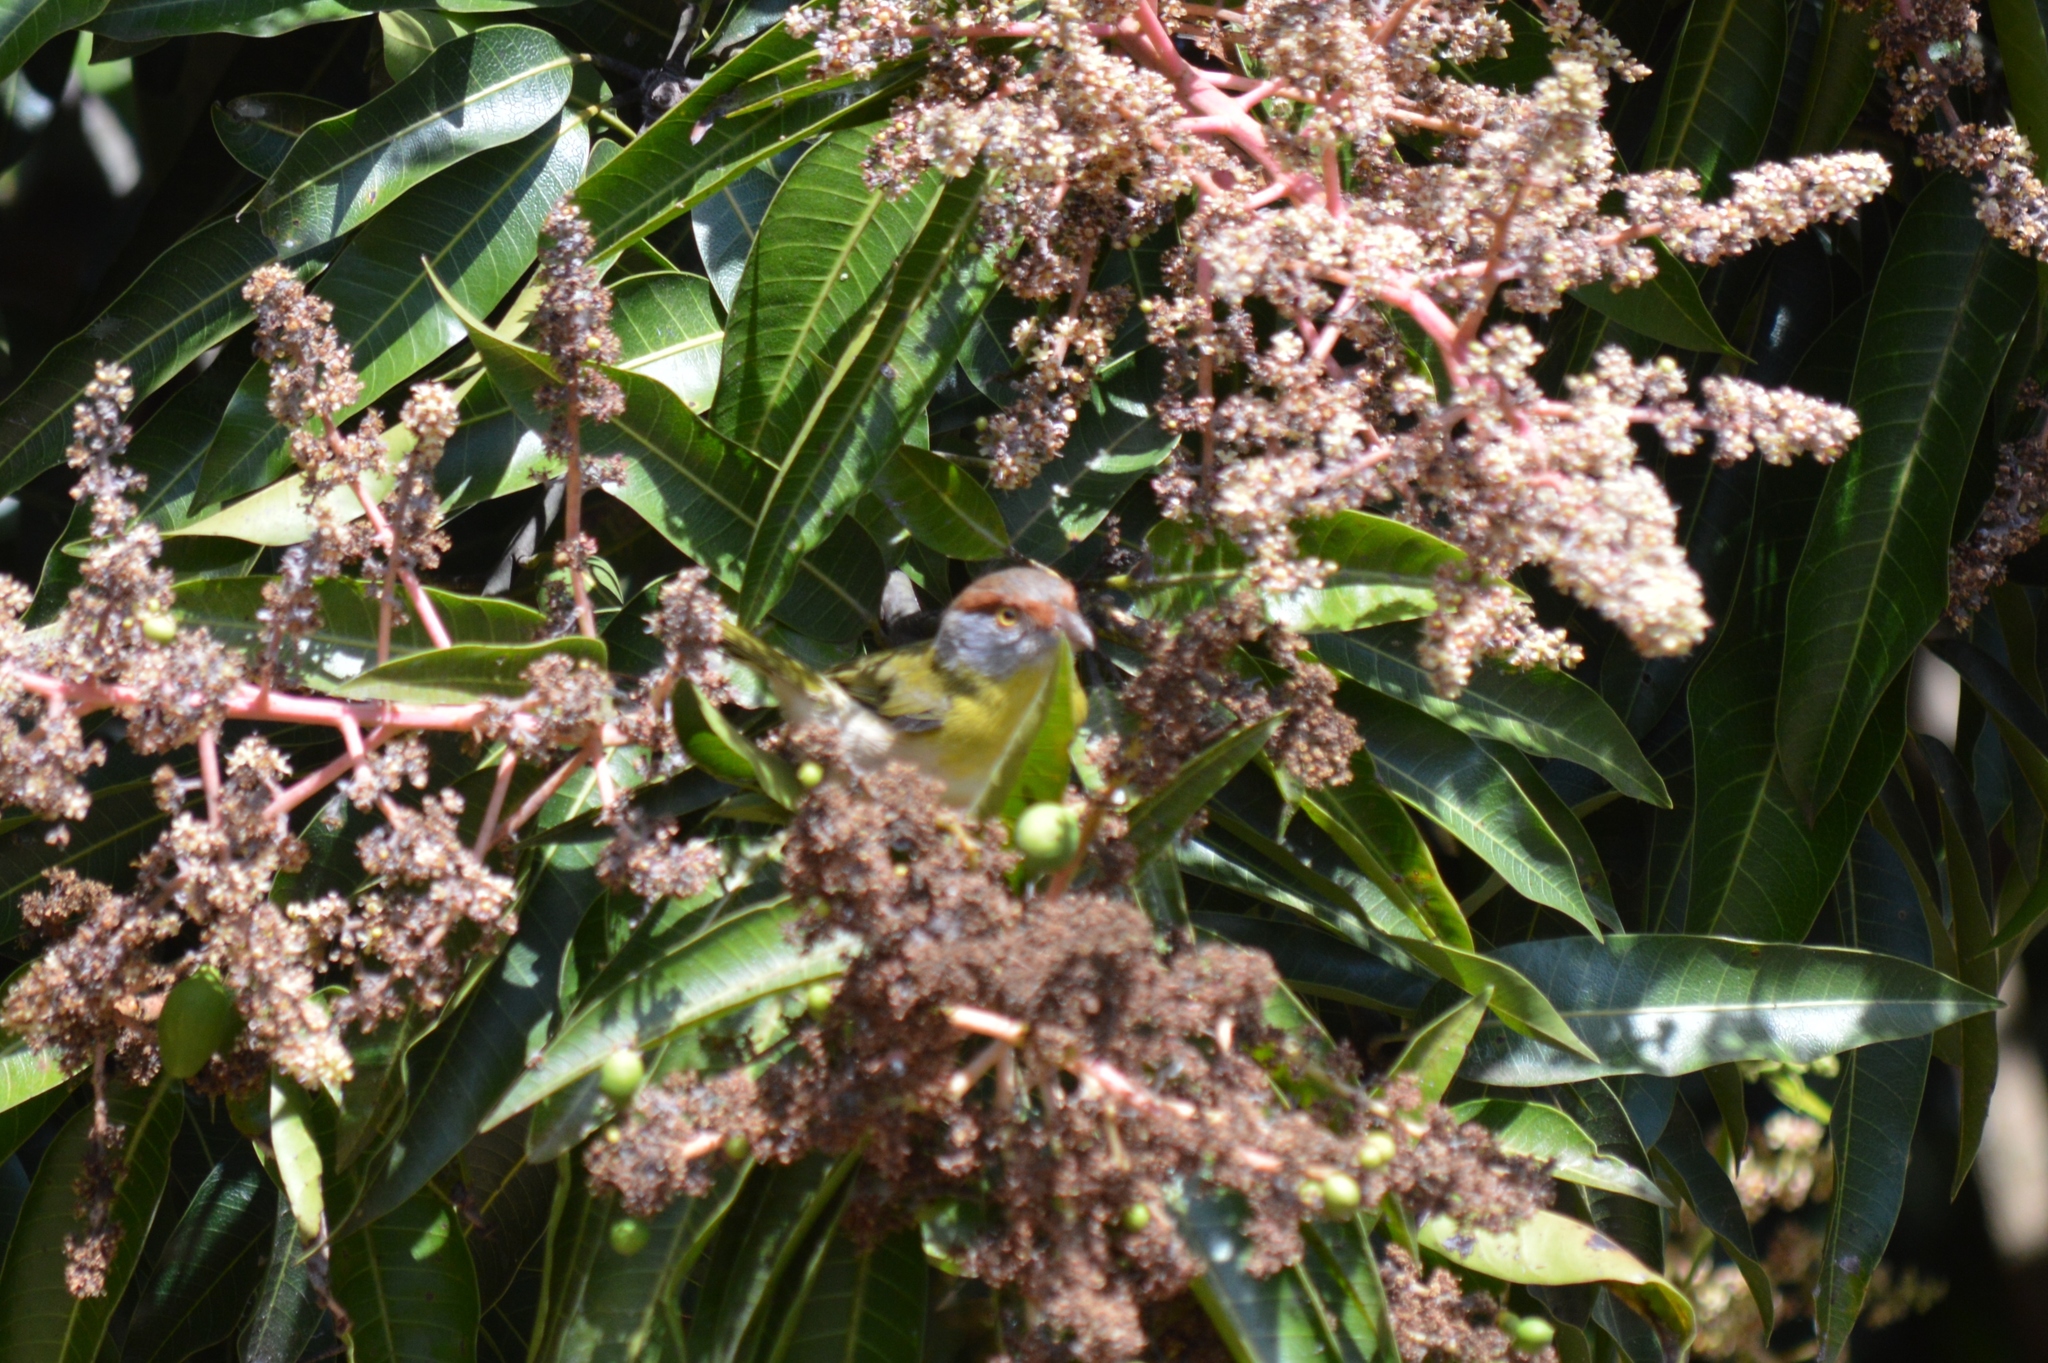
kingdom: Animalia
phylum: Chordata
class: Aves
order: Passeriformes
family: Vireonidae
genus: Cyclarhis
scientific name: Cyclarhis gujanensis
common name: Rufous-browed peppershrike
